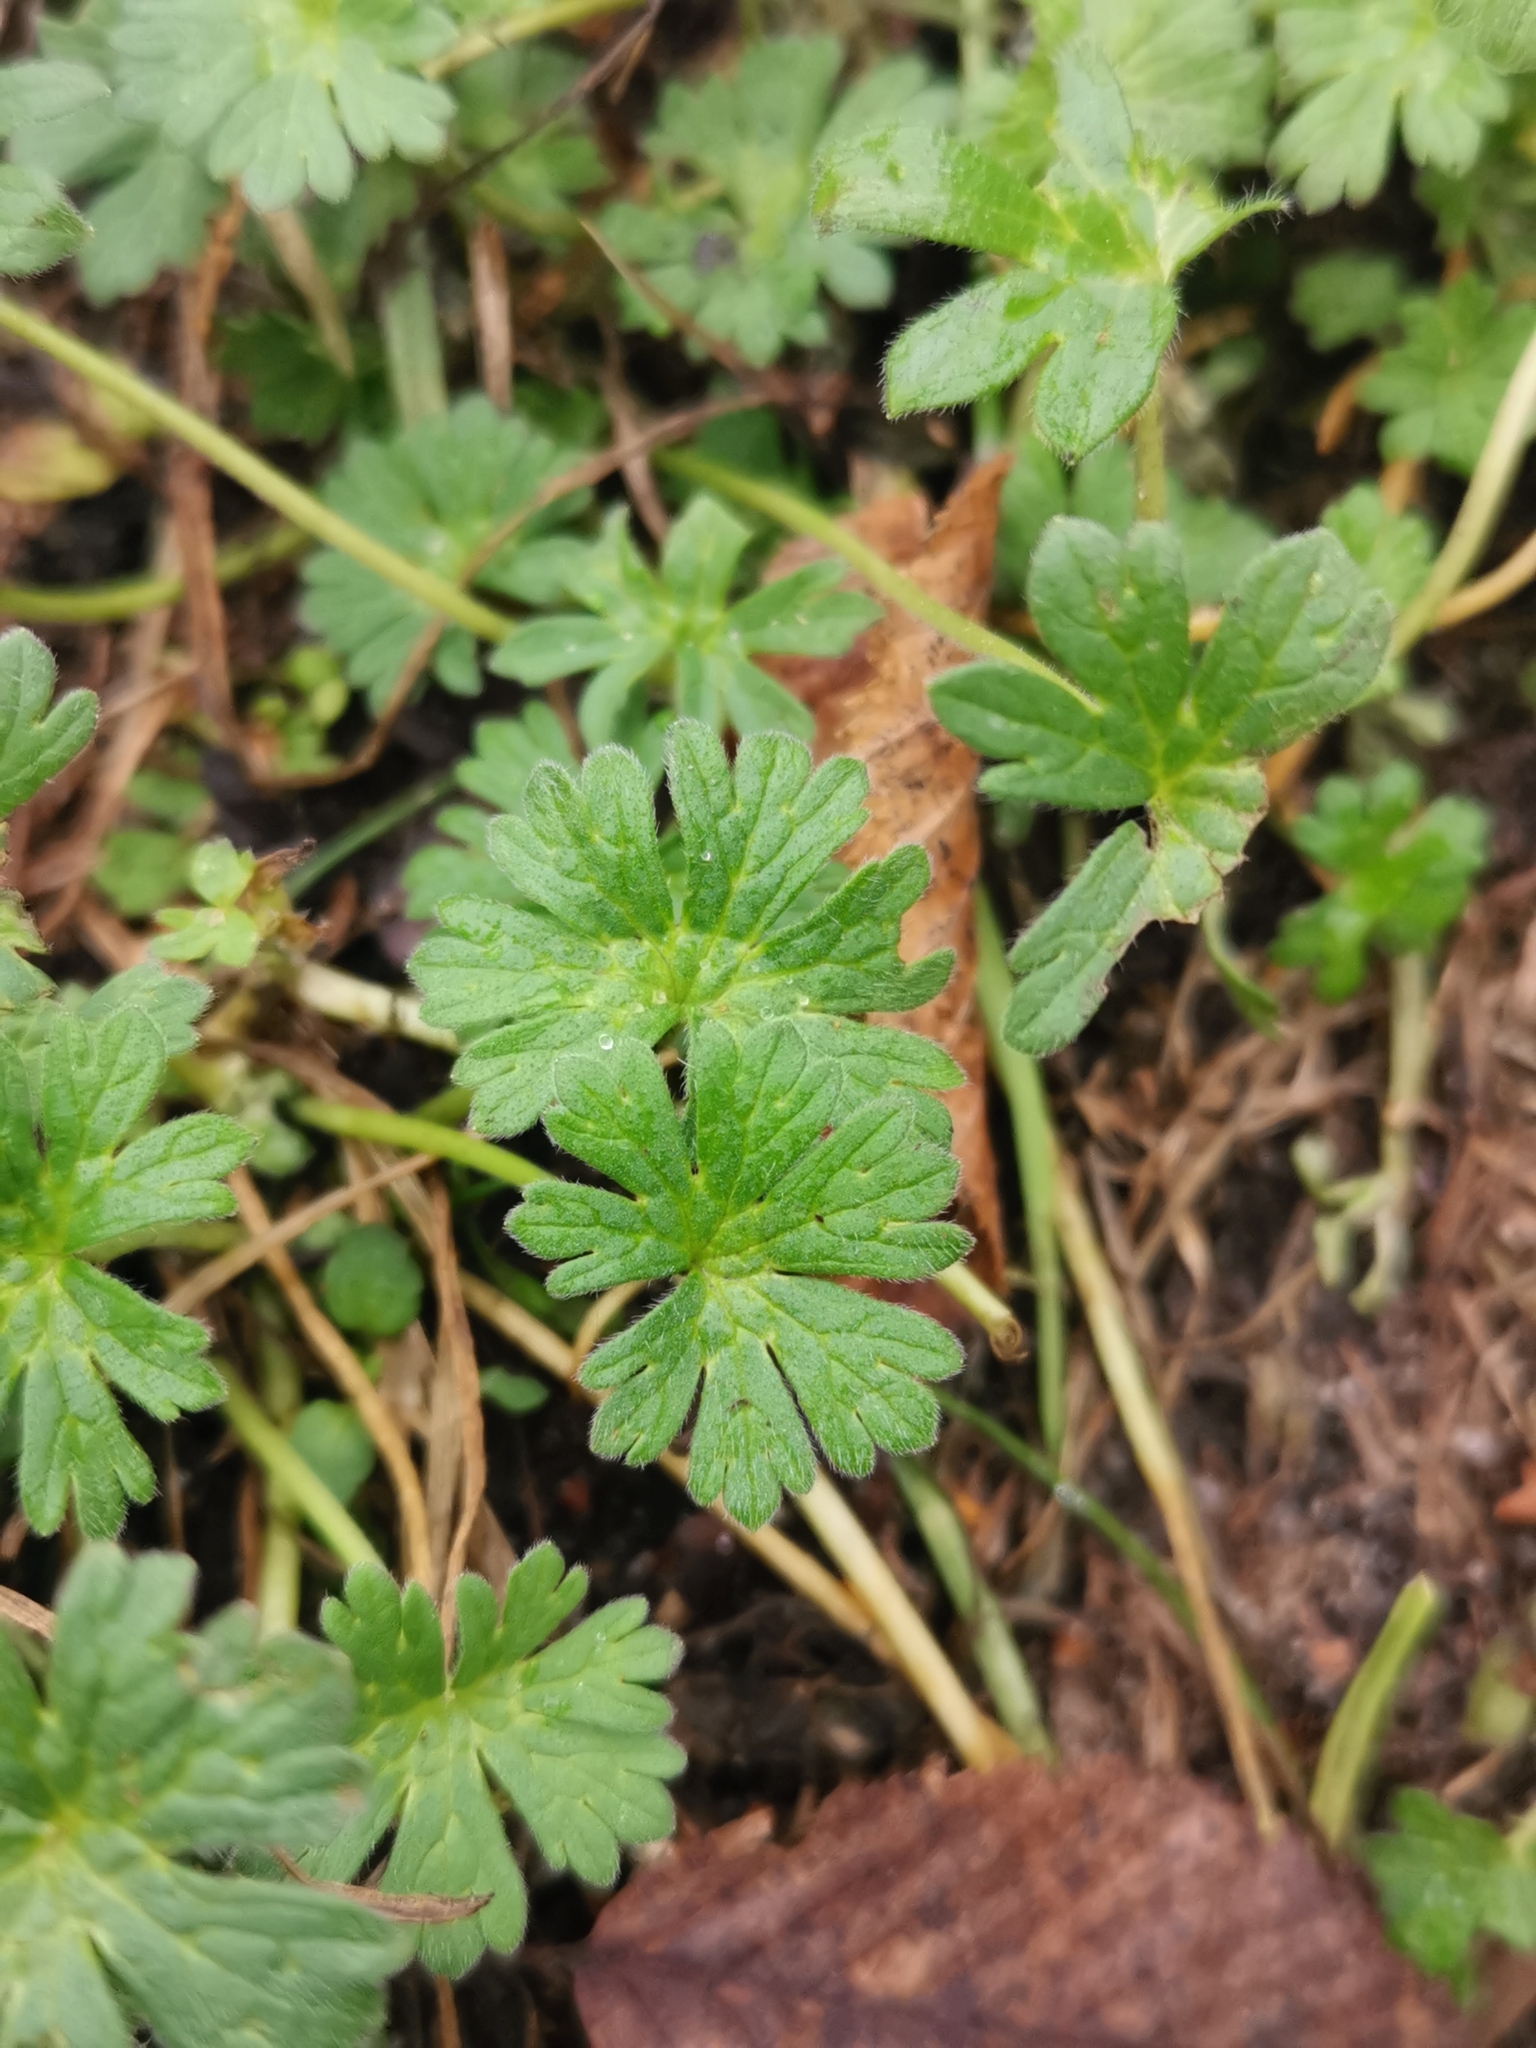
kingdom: Plantae
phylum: Tracheophyta
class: Magnoliopsida
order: Geraniales
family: Geraniaceae
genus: Geranium
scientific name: Geranium molle
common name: Dove's-foot crane's-bill
